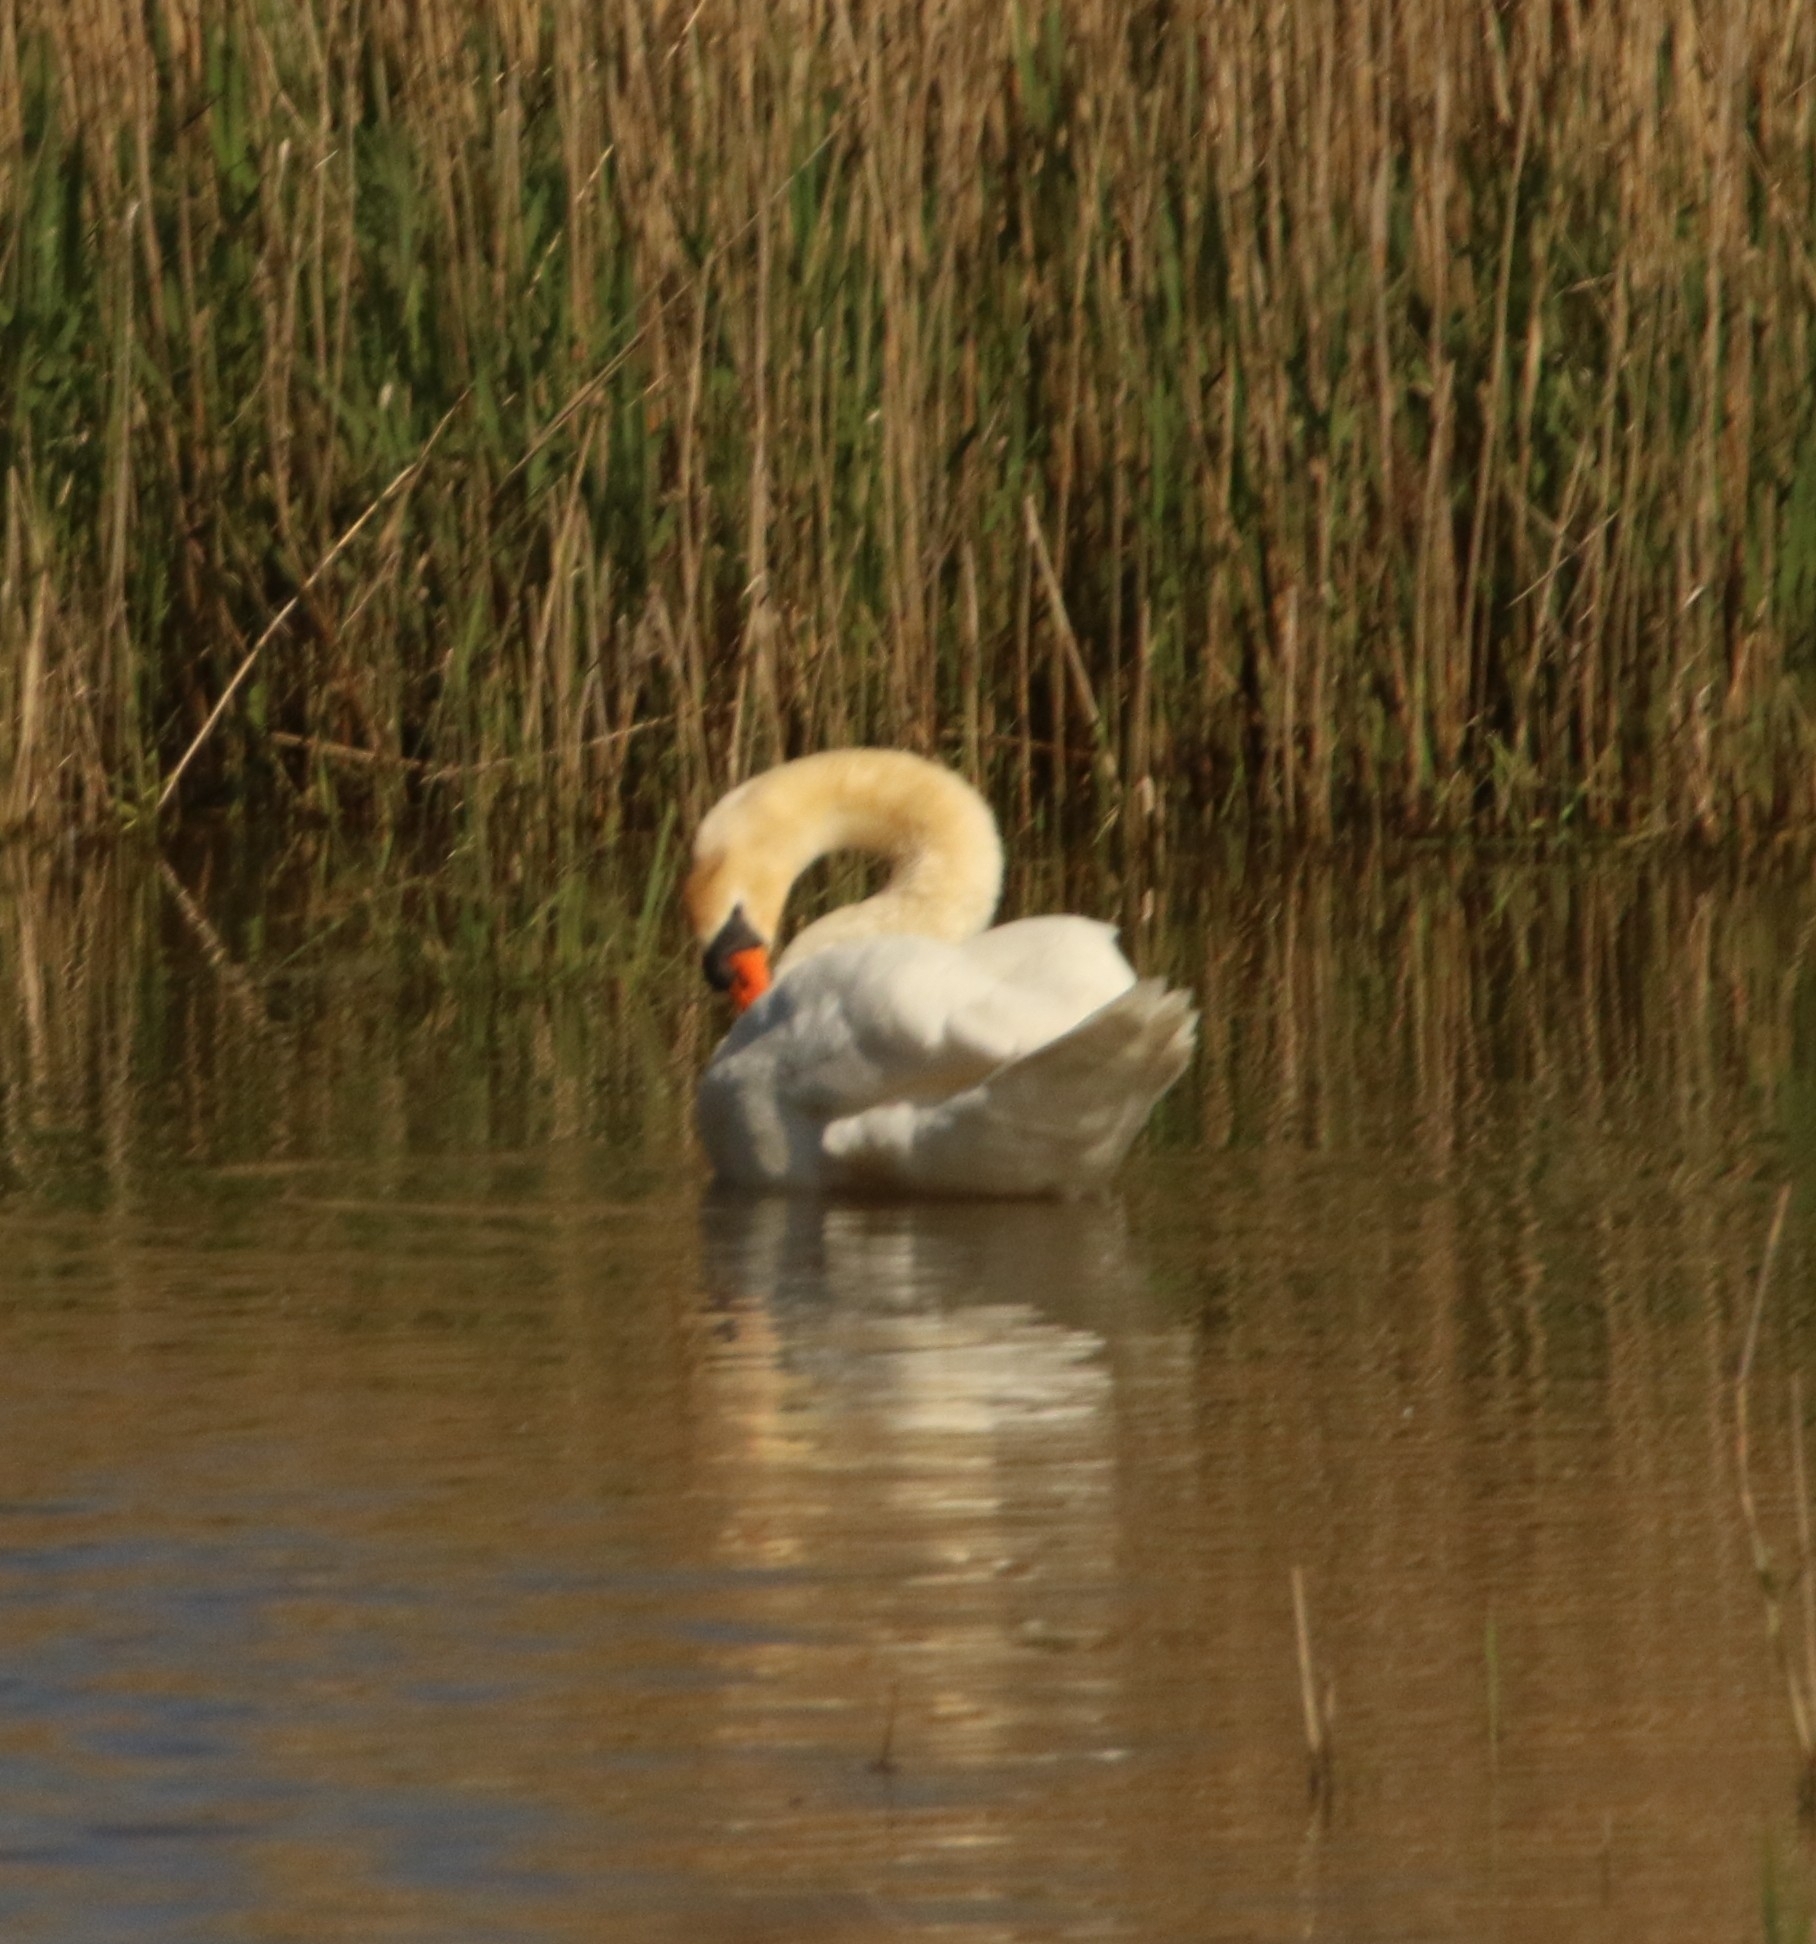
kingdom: Animalia
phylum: Chordata
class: Aves
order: Anseriformes
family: Anatidae
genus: Cygnus
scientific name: Cygnus olor
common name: Mute swan
